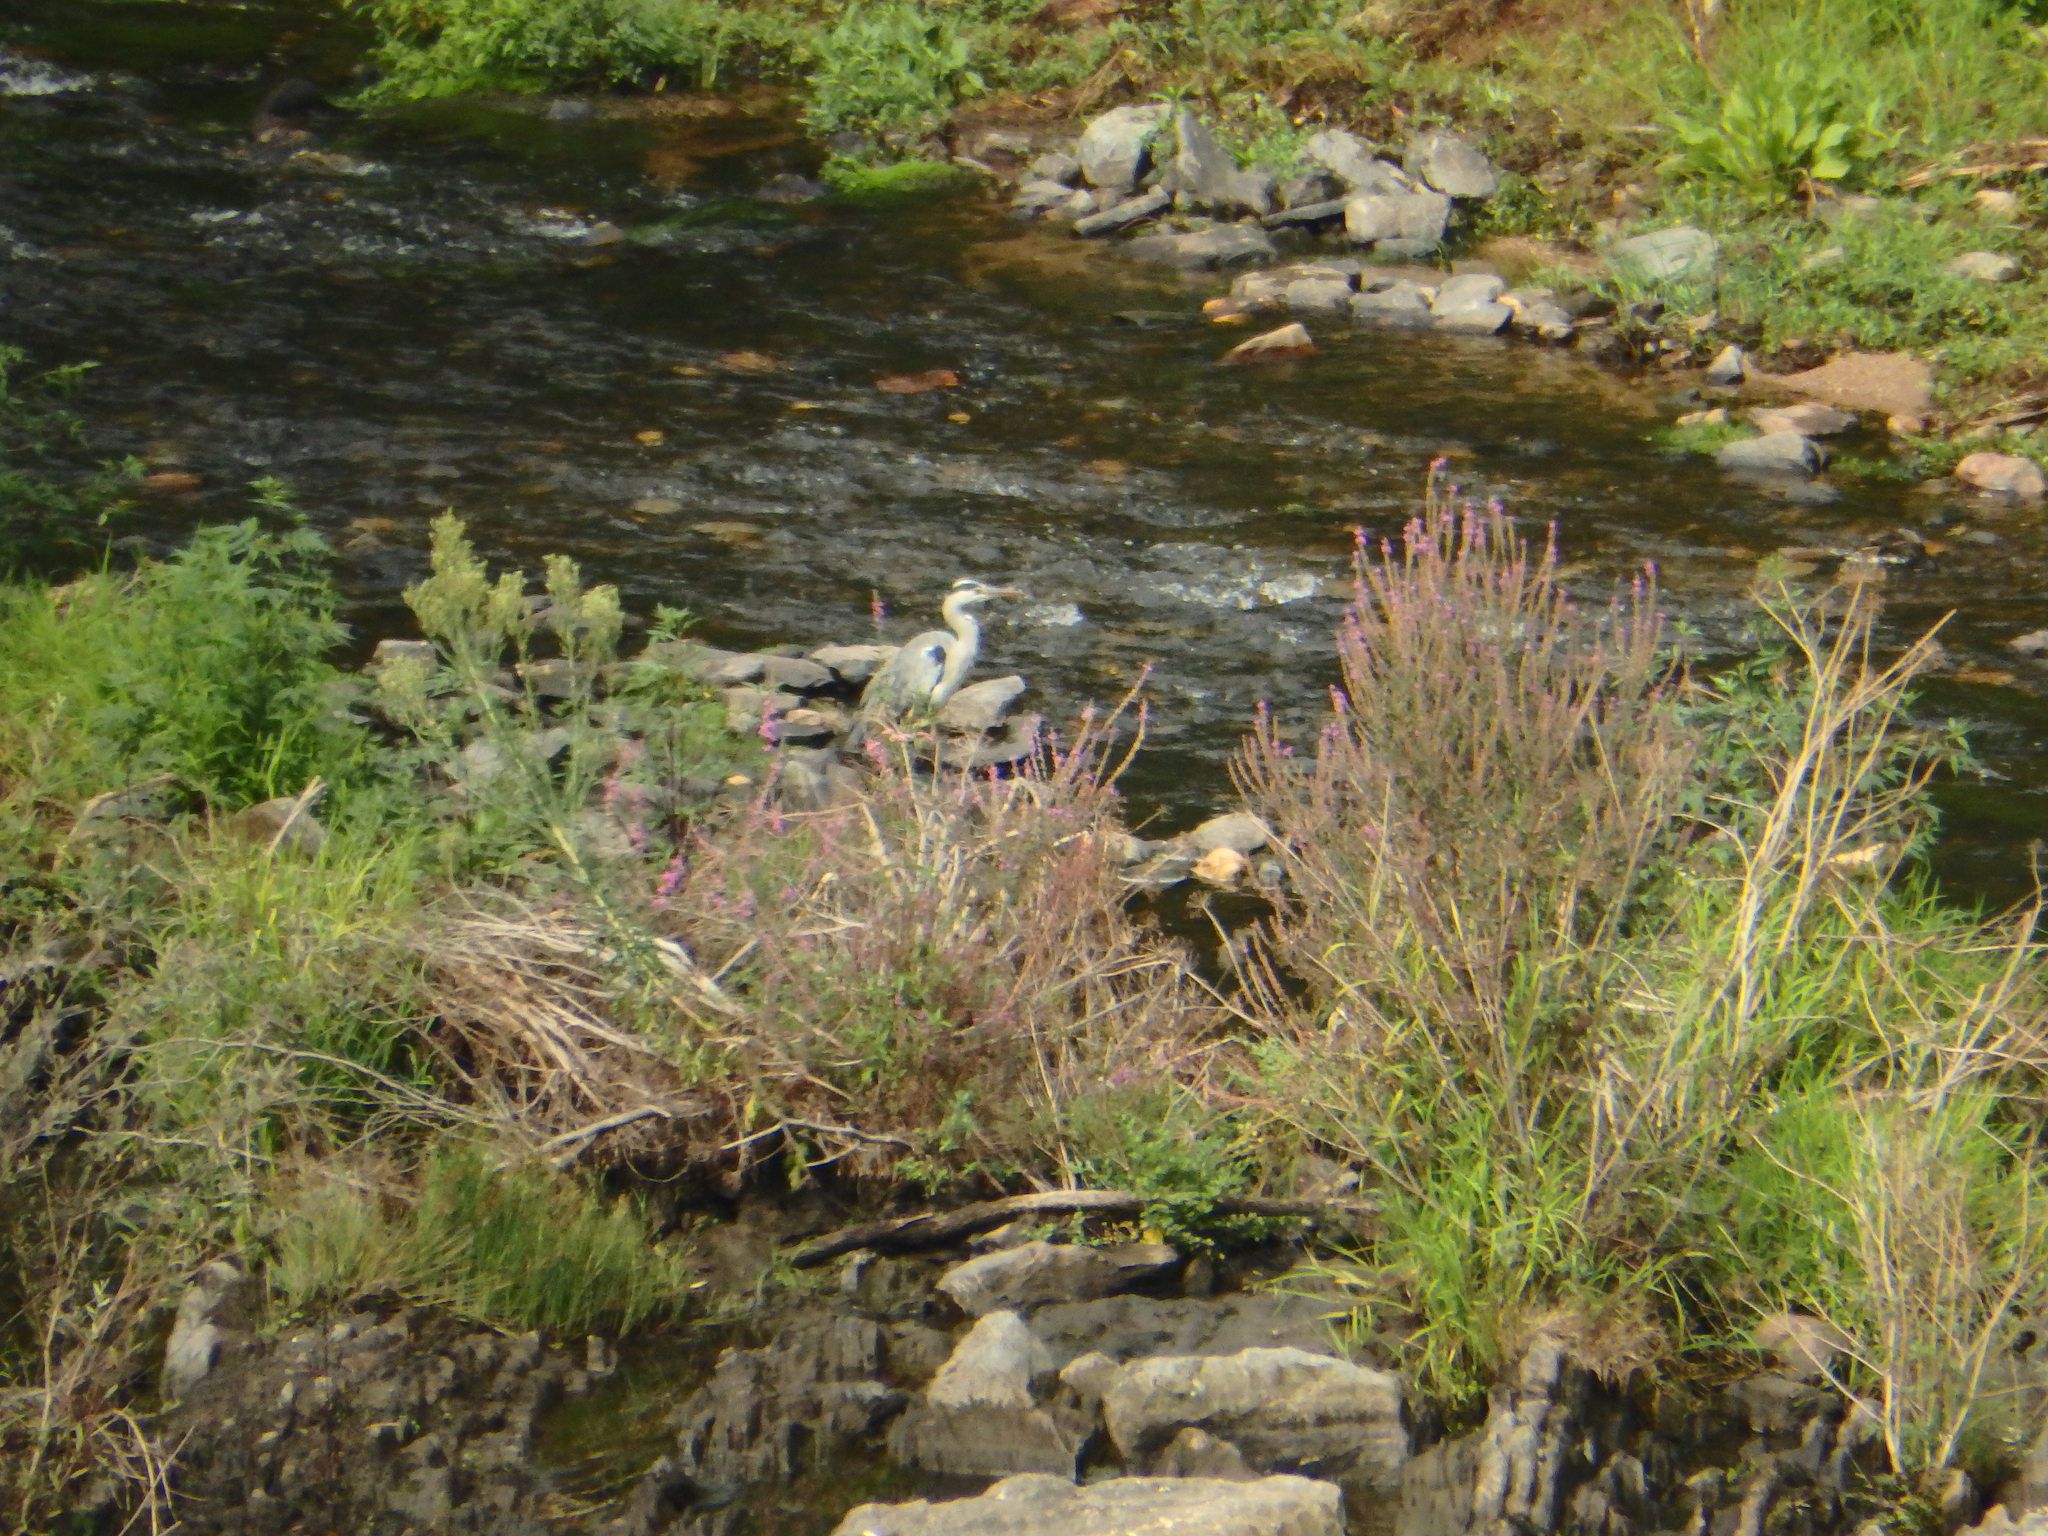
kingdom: Animalia
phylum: Chordata
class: Aves
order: Pelecaniformes
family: Ardeidae
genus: Ardea
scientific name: Ardea cinerea
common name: Grey heron
